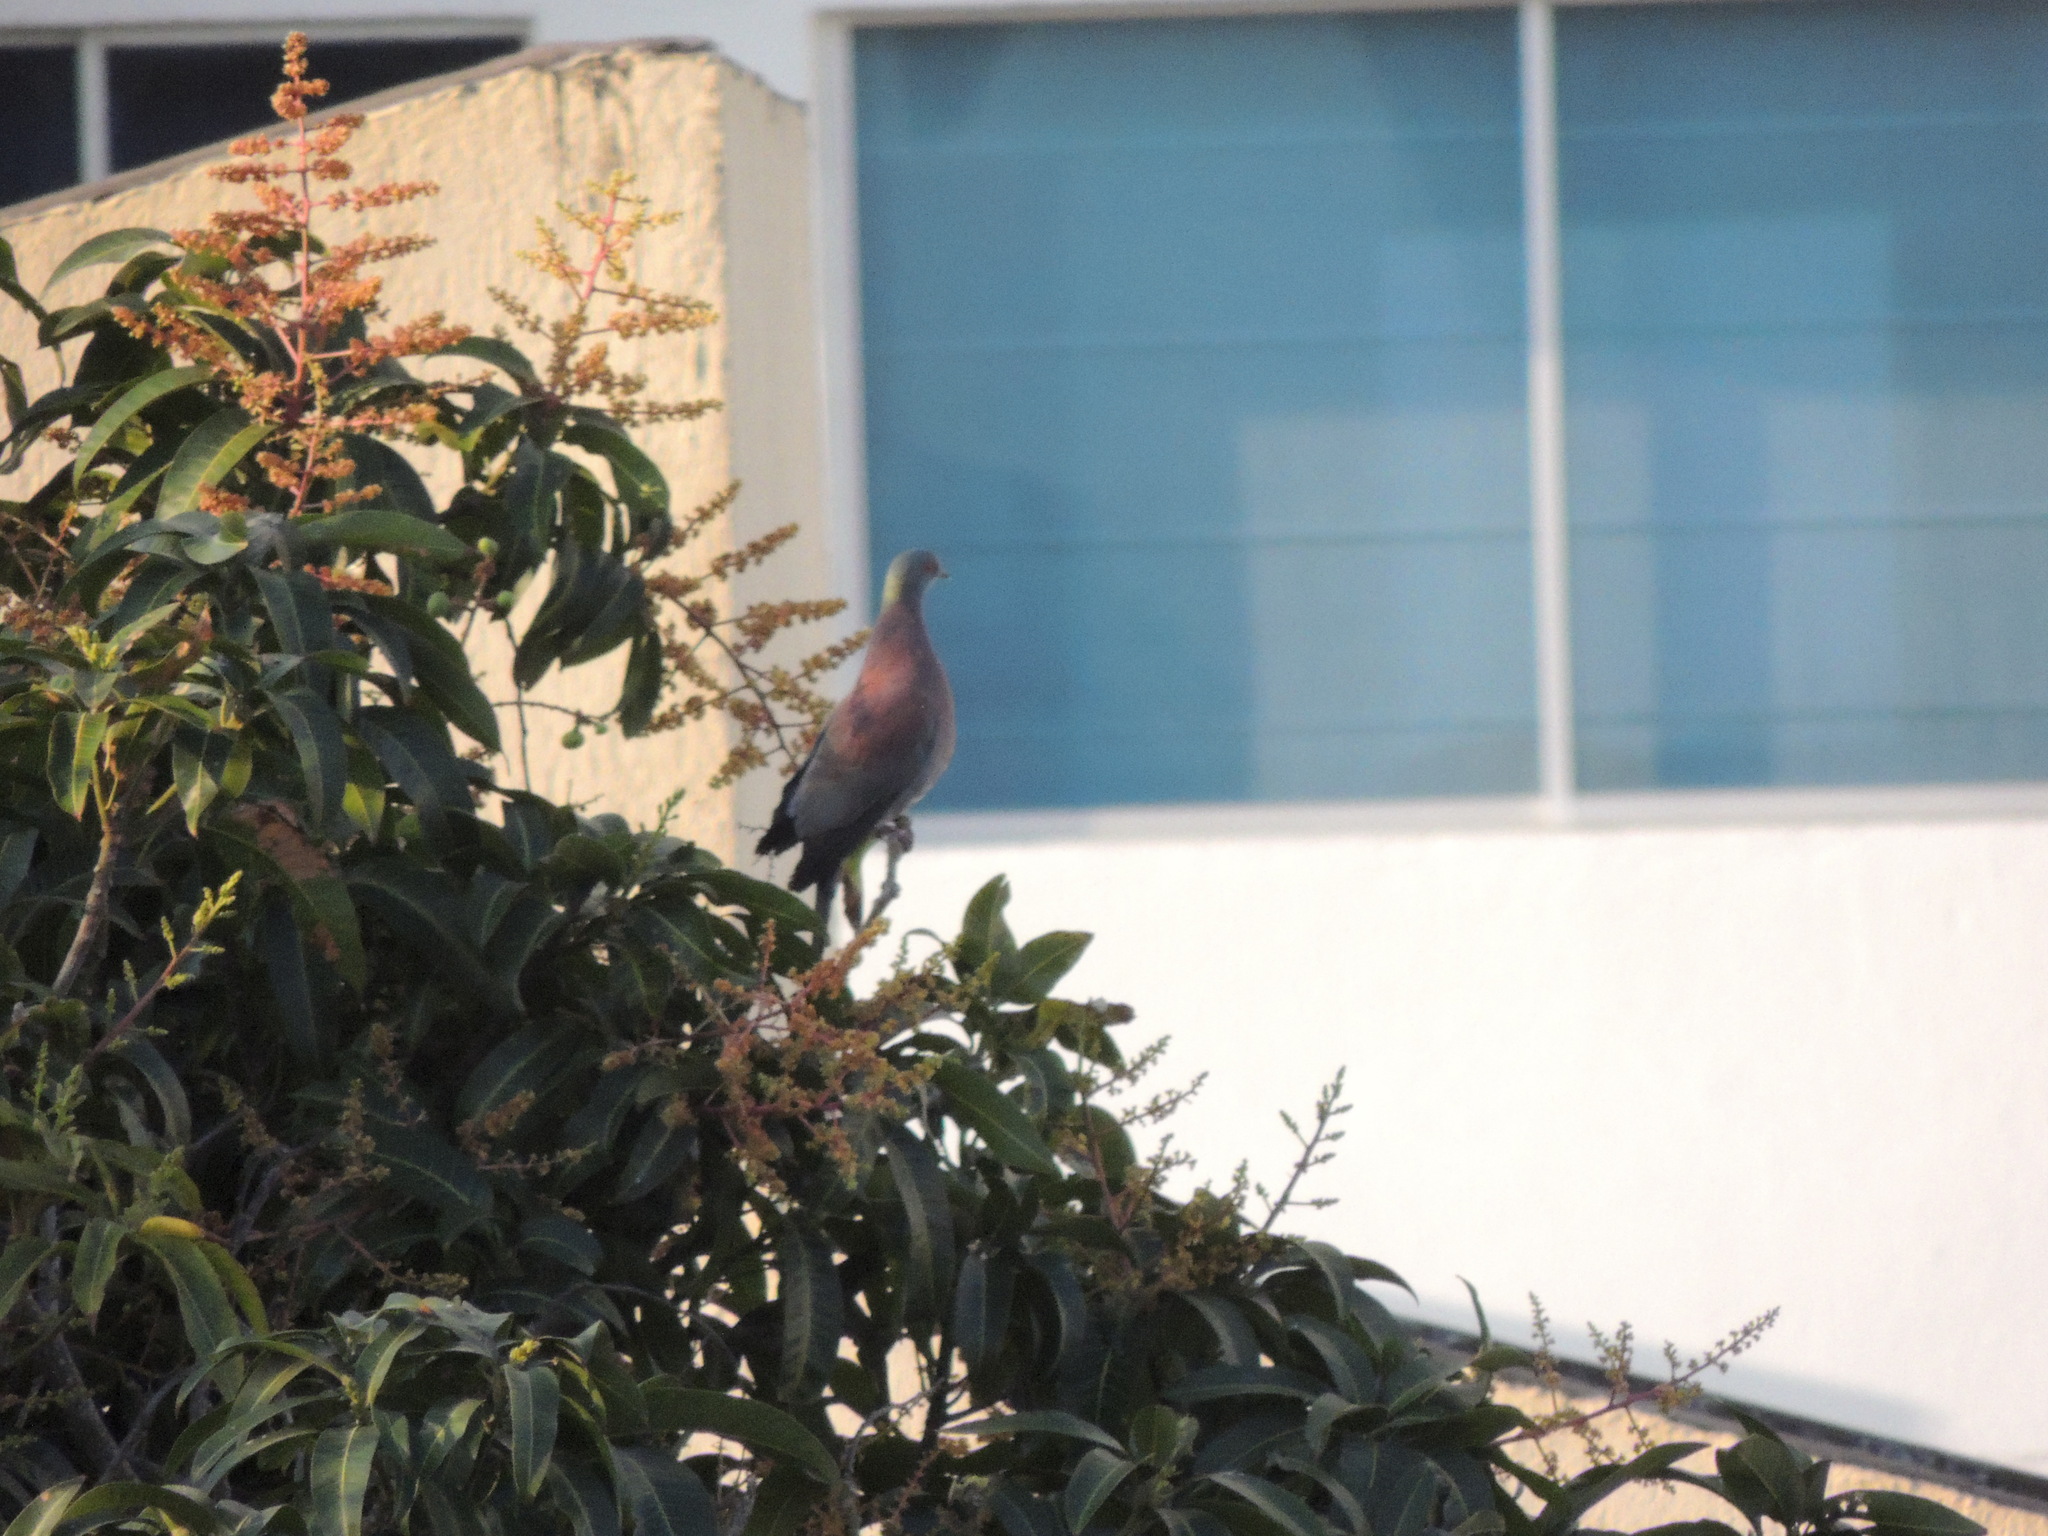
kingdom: Animalia
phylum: Chordata
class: Aves
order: Columbiformes
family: Columbidae
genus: Patagioenas
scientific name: Patagioenas cayennensis
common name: Pale-vented pigeon
